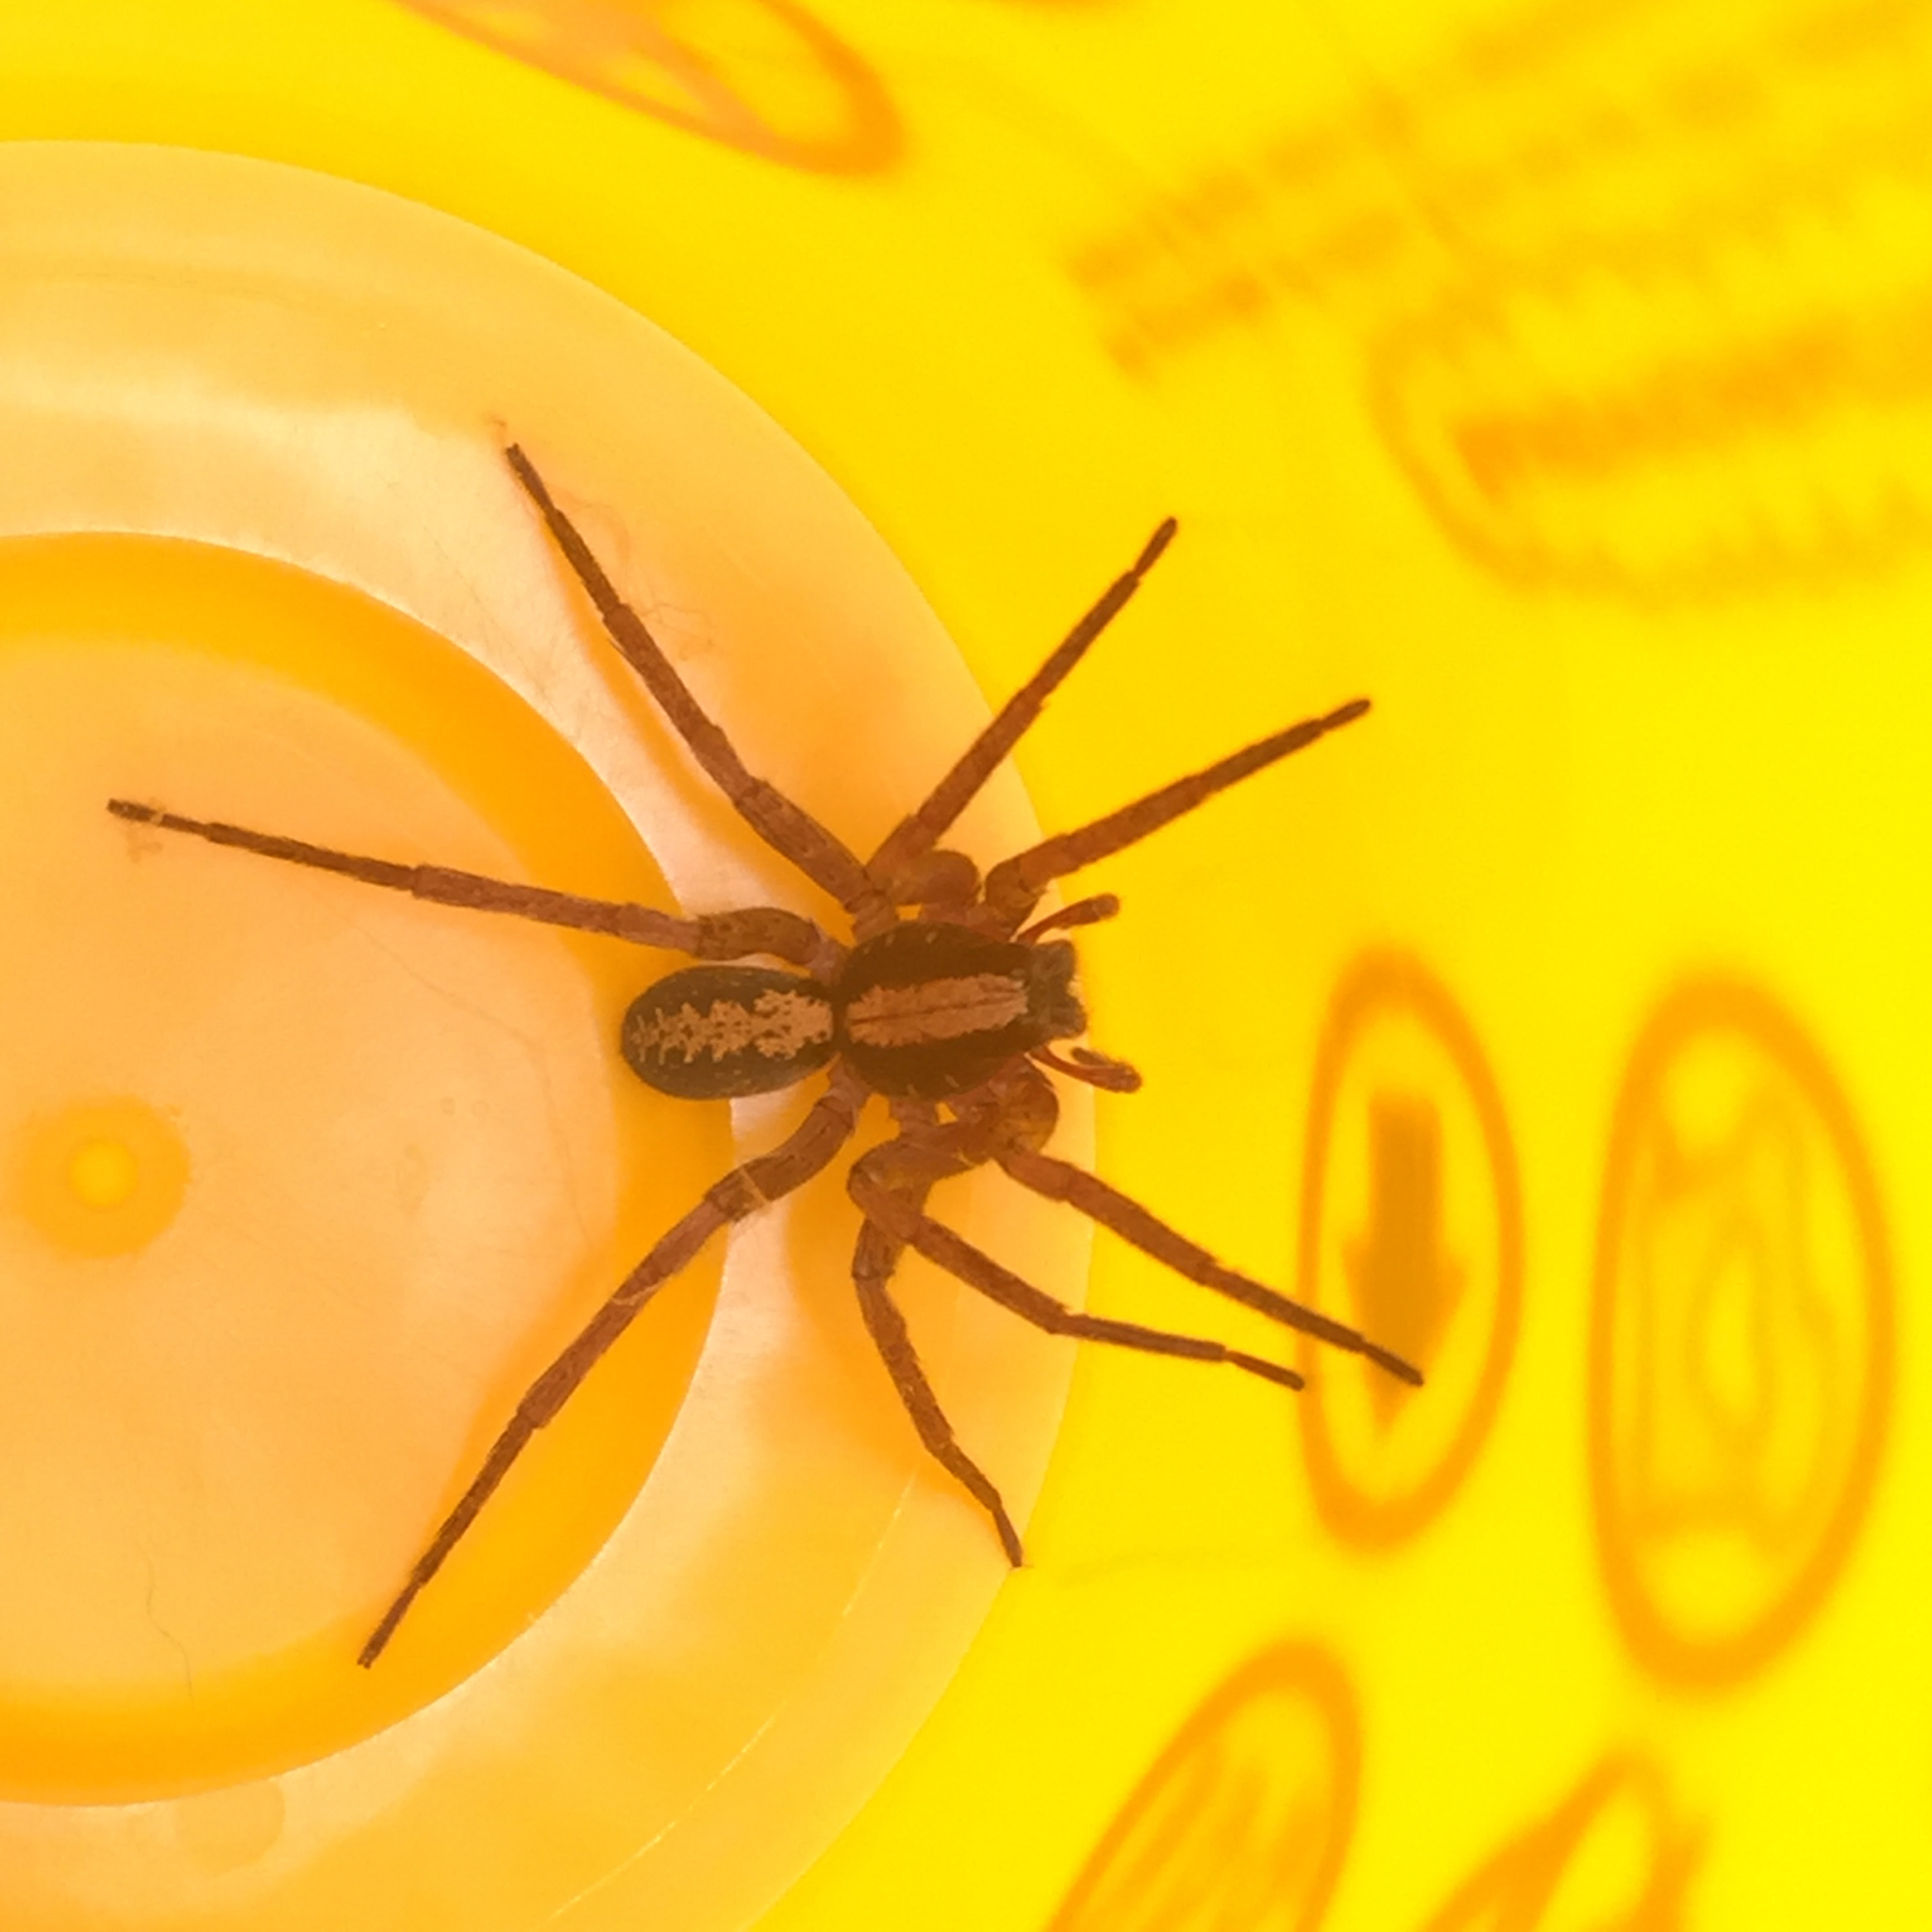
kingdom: Animalia
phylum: Arthropoda
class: Arachnida
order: Araneae
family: Ctenidae
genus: Ctenus
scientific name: Ctenus hibernalis
